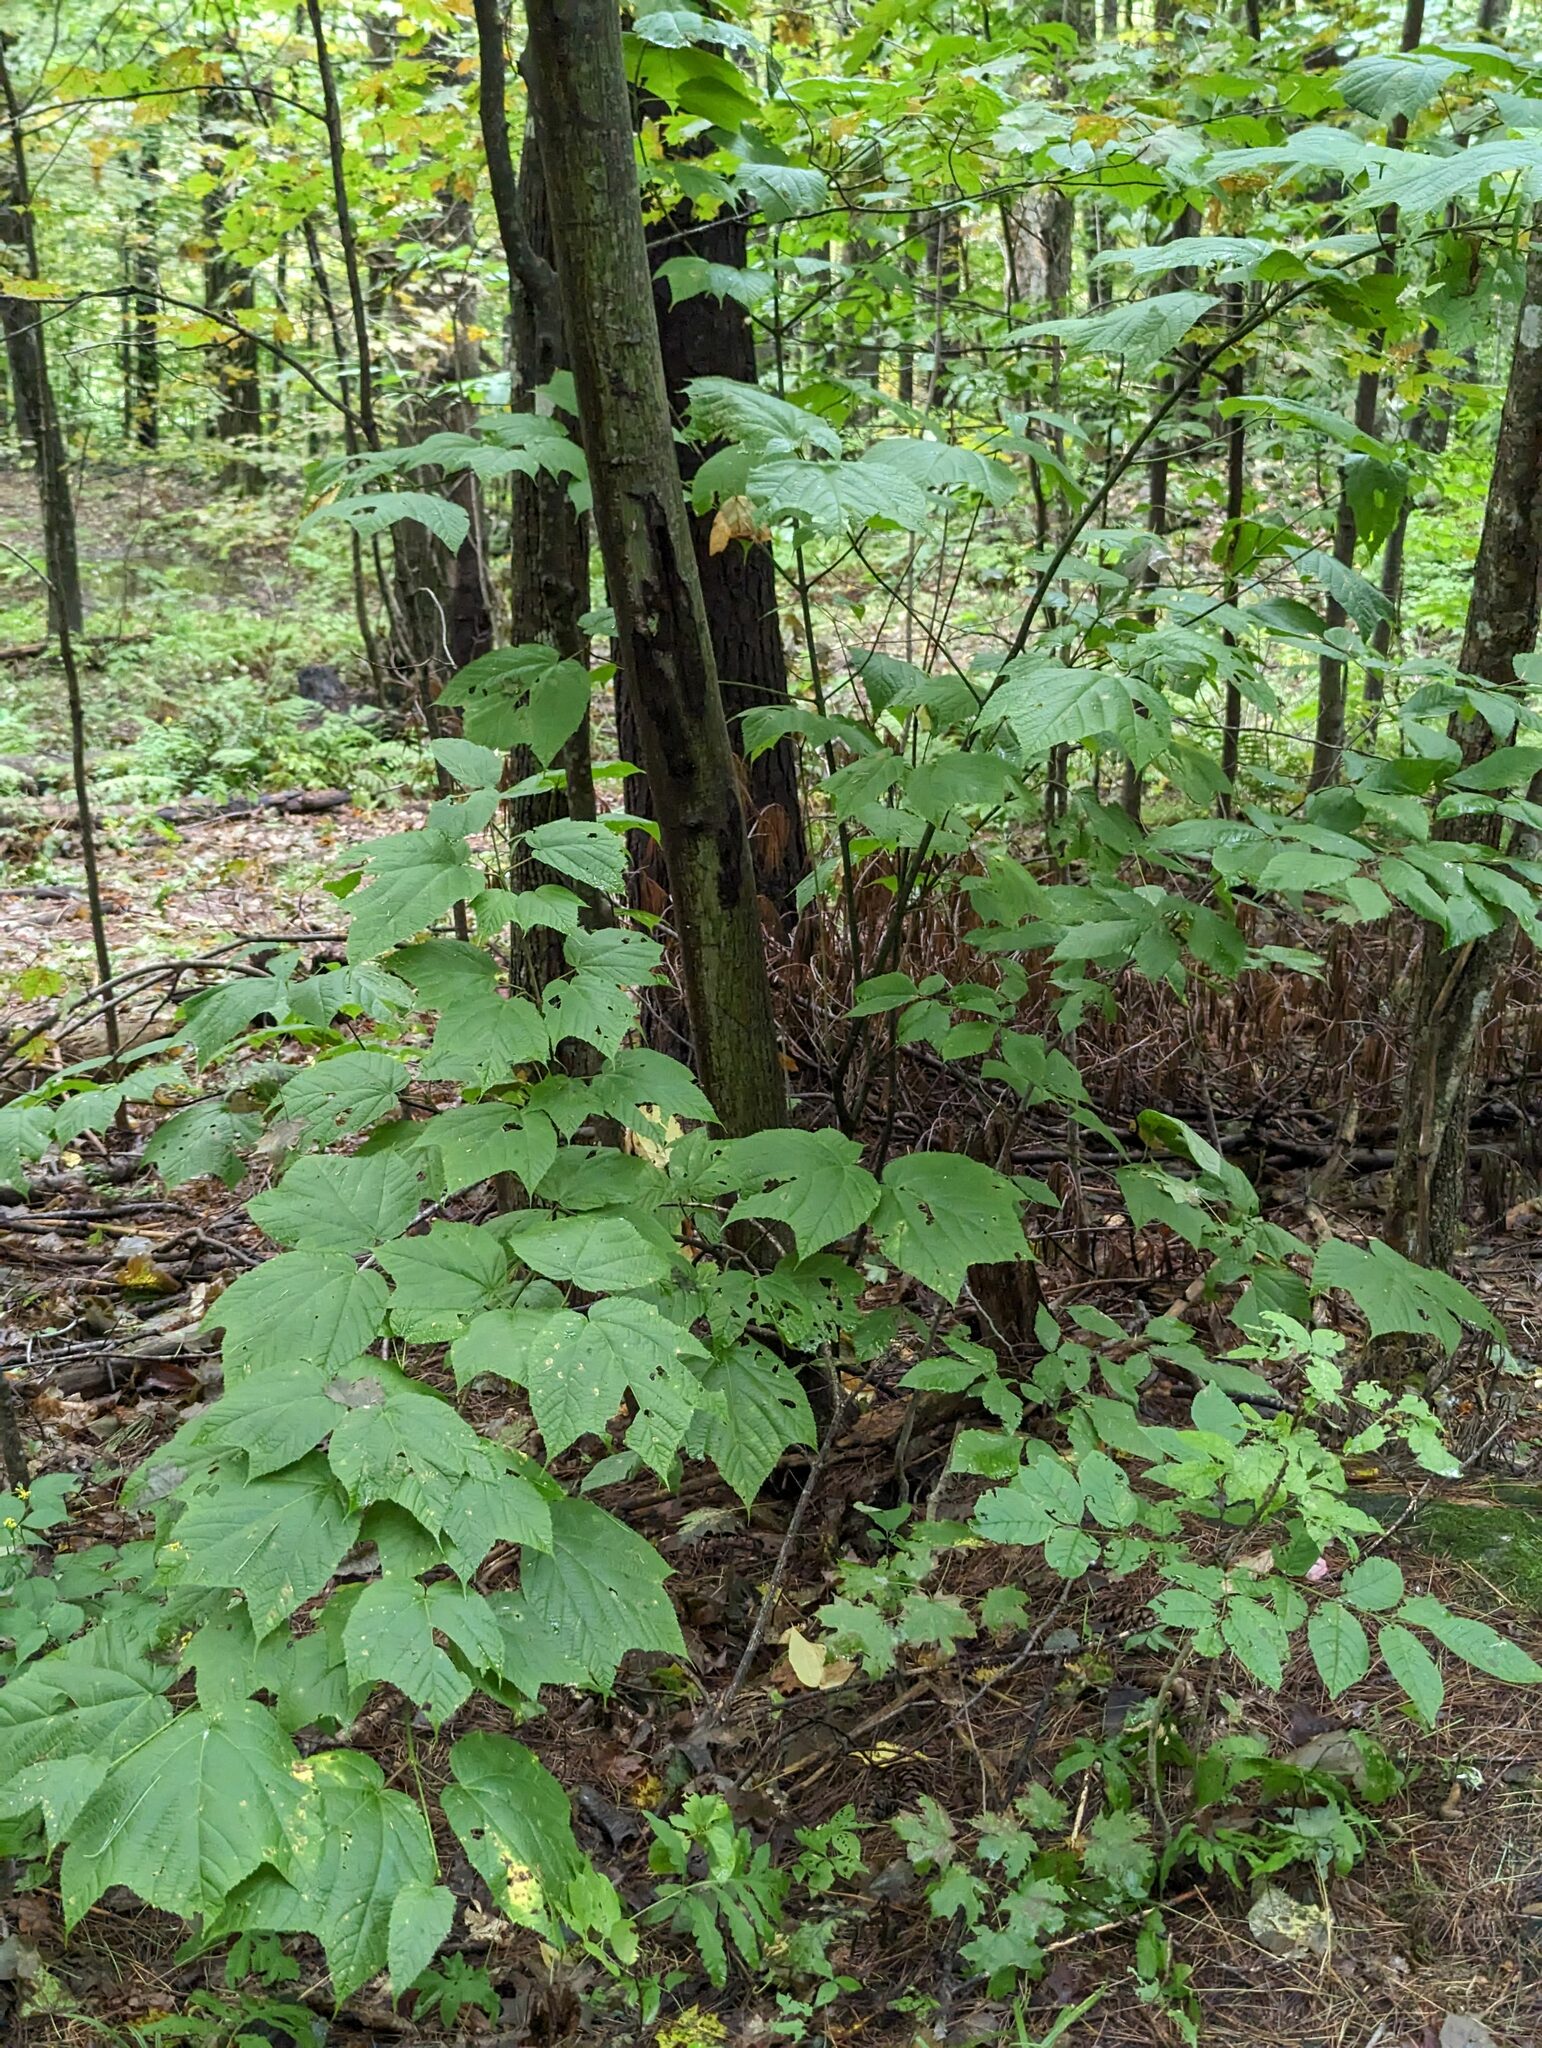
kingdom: Plantae
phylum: Tracheophyta
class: Magnoliopsida
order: Sapindales
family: Sapindaceae
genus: Acer
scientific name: Acer pensylvanicum
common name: Moosewood
